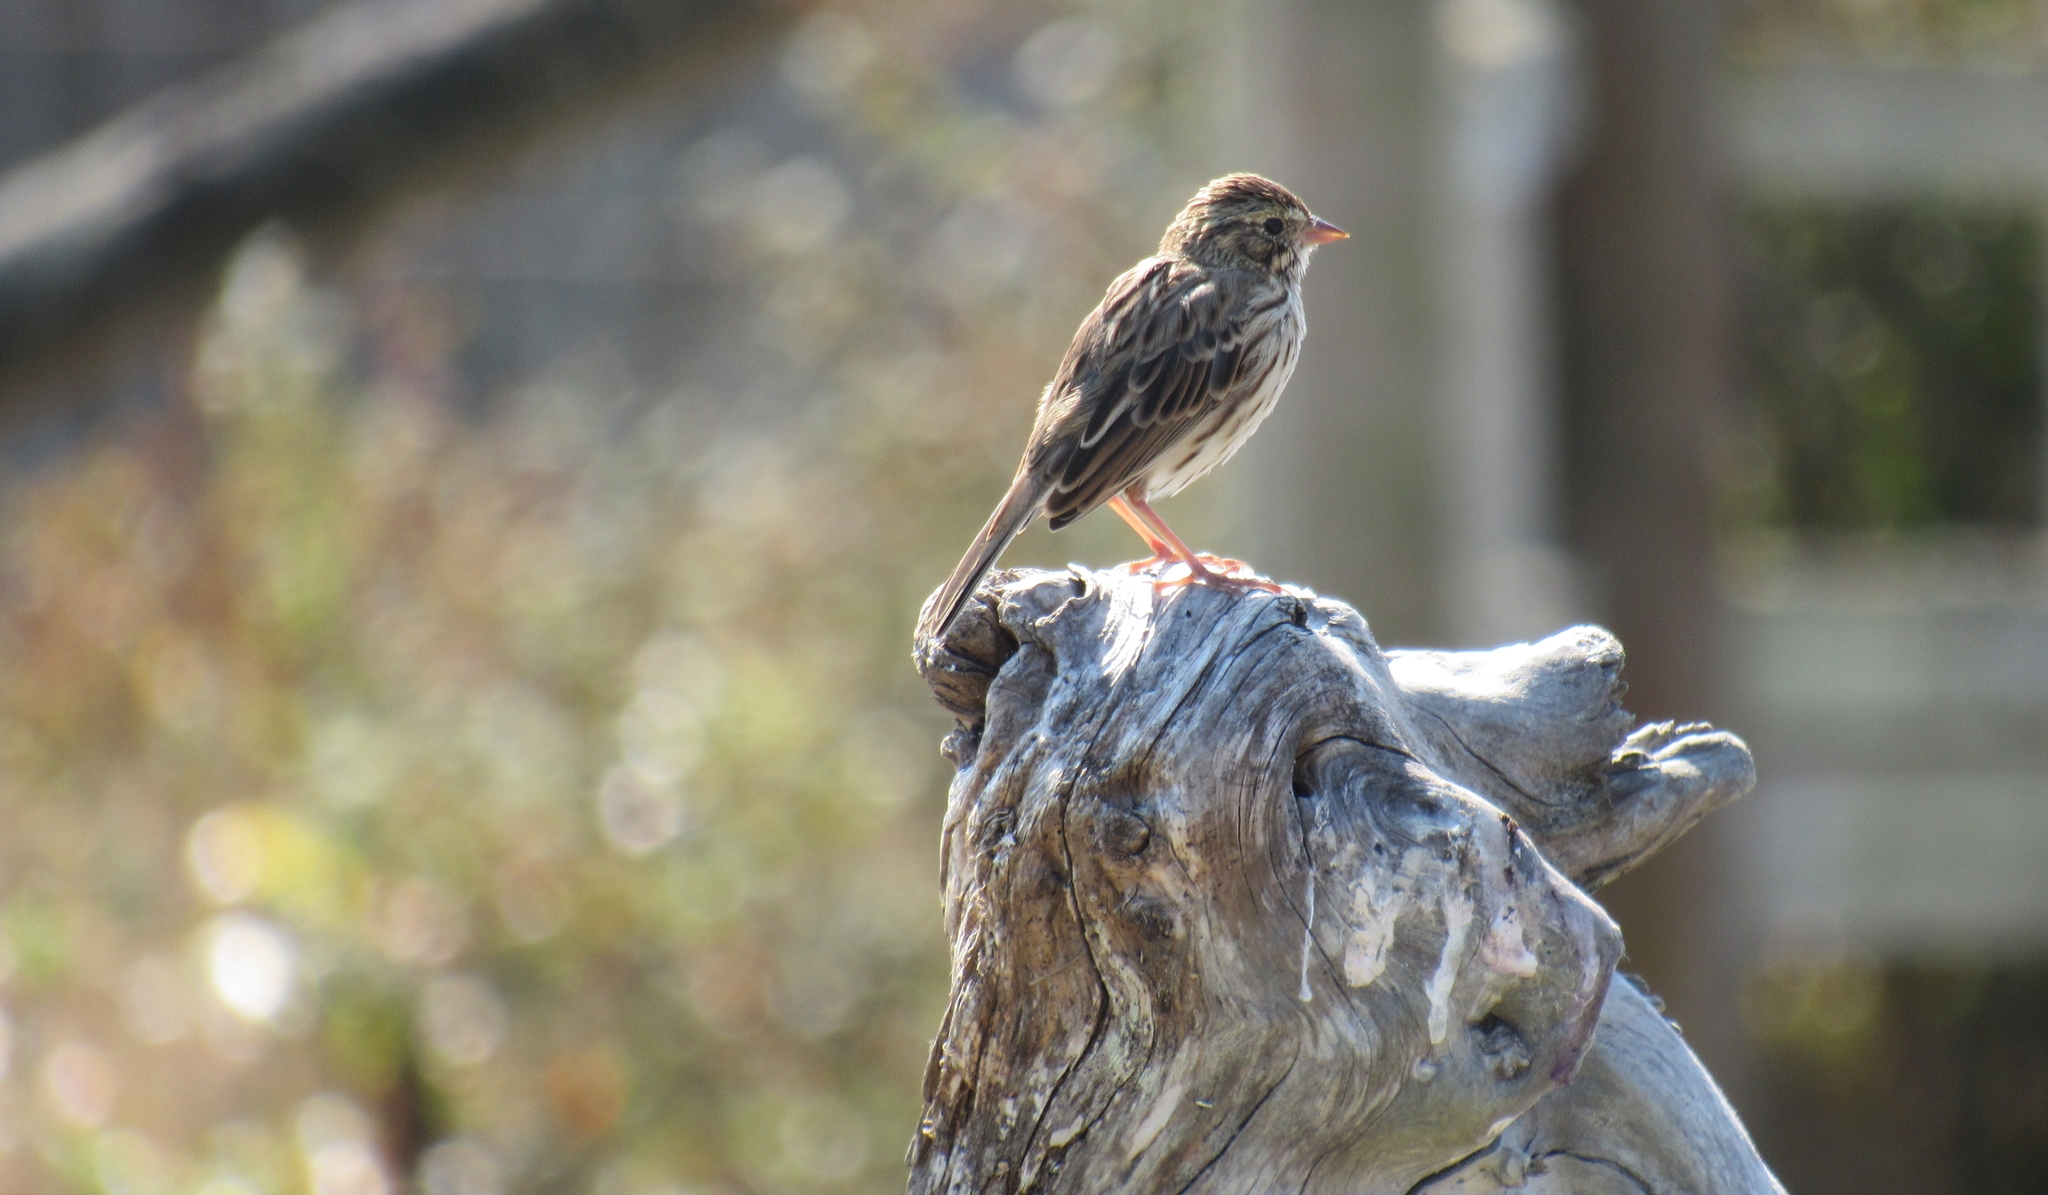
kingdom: Animalia
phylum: Chordata
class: Aves
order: Passeriformes
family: Passerellidae
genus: Passerculus
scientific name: Passerculus sandwichensis
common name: Savannah sparrow
